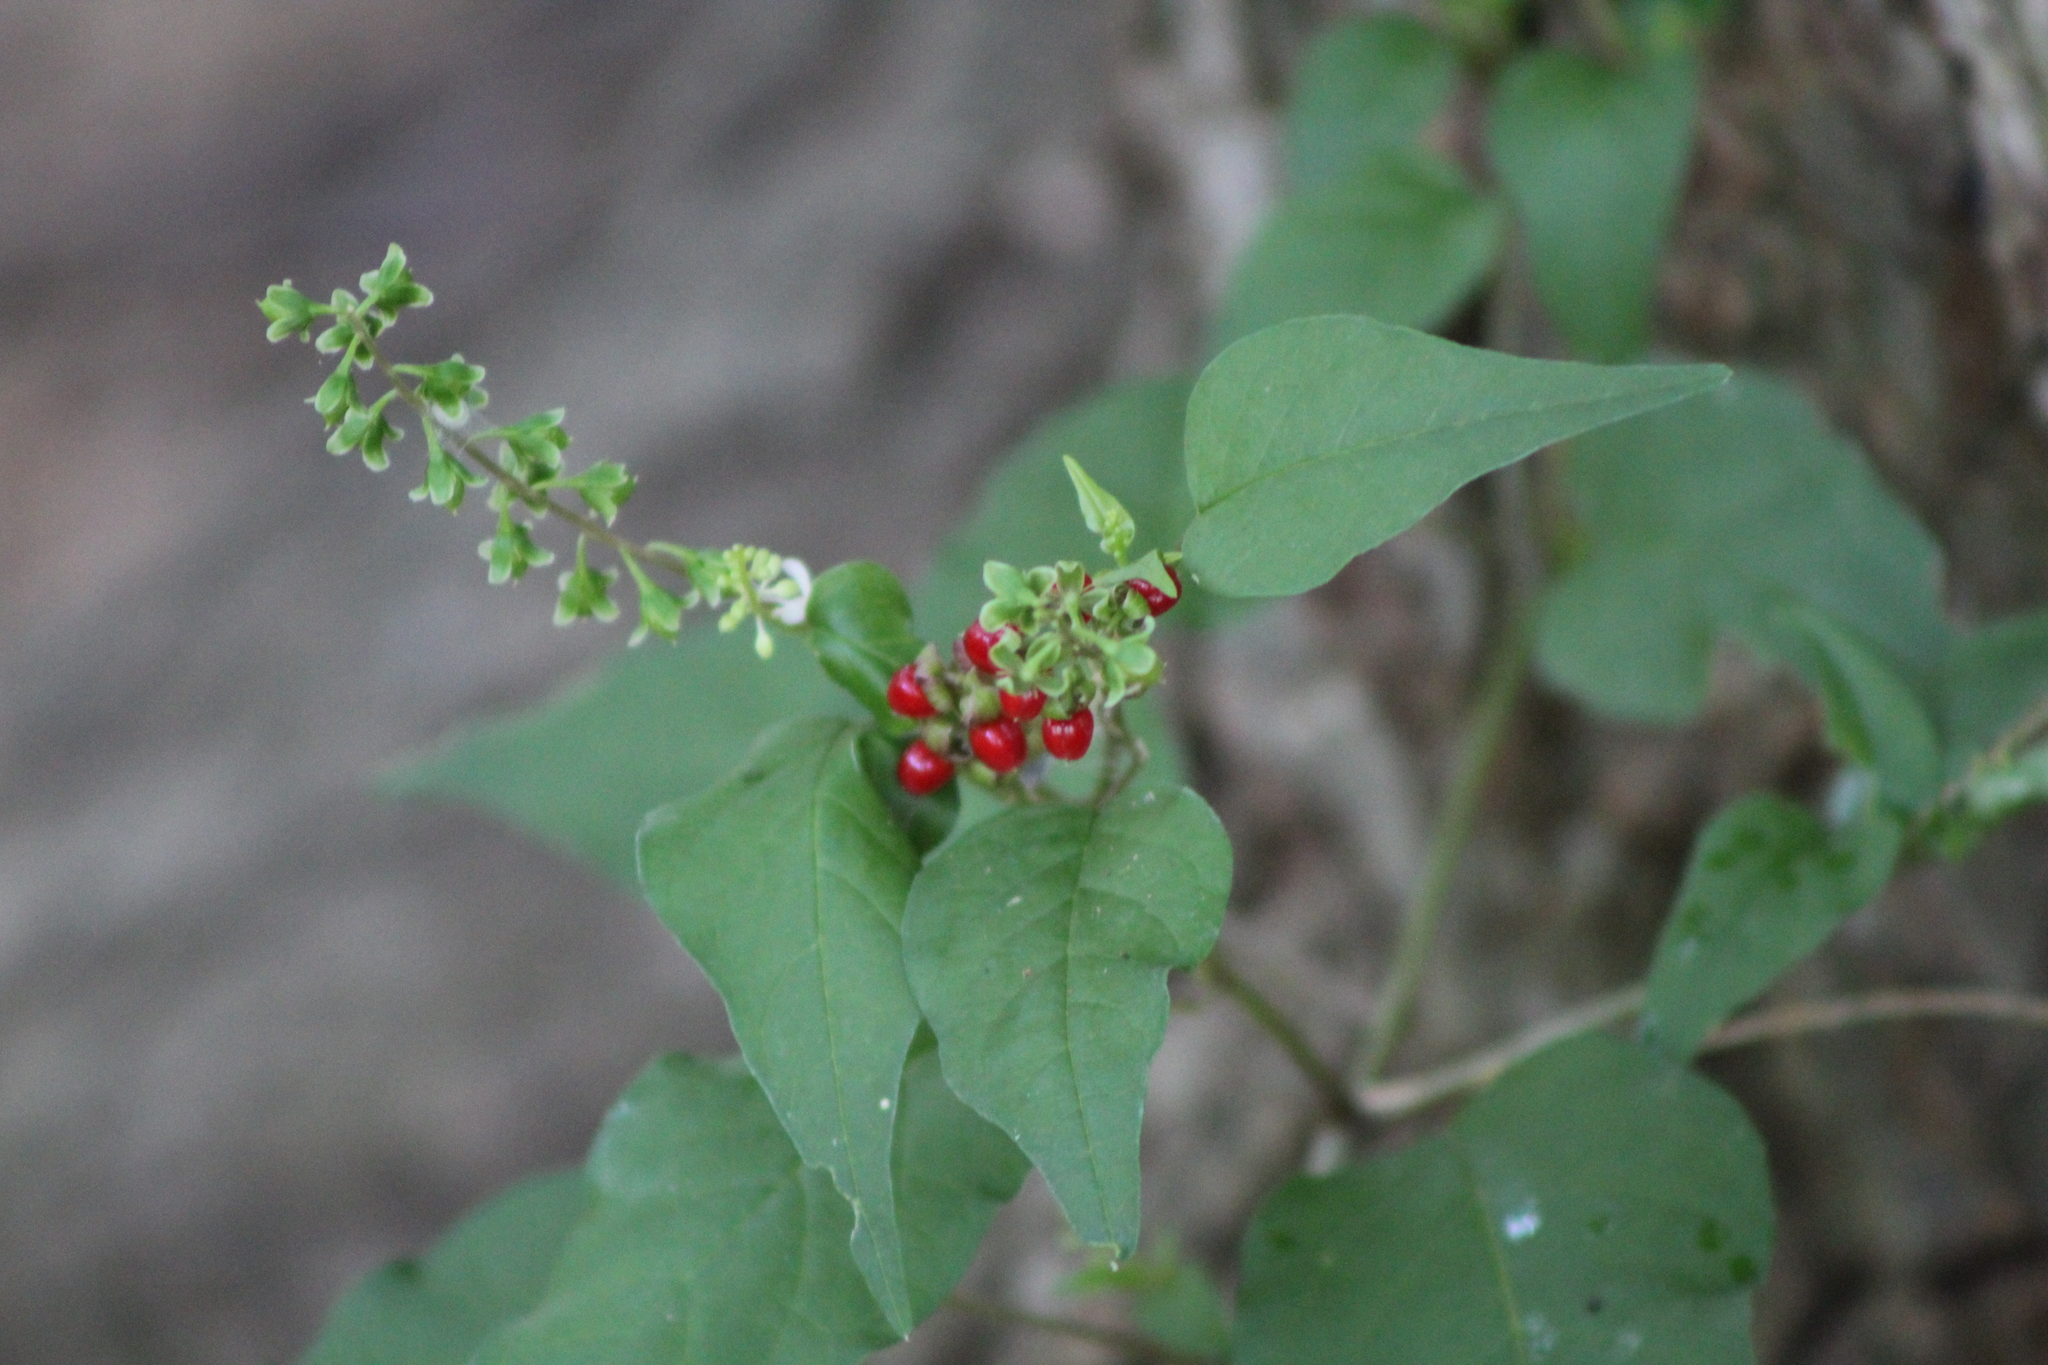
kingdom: Plantae
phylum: Tracheophyta
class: Magnoliopsida
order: Caryophyllales
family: Phytolaccaceae
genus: Rivina
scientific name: Rivina humilis
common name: Rougeplant
